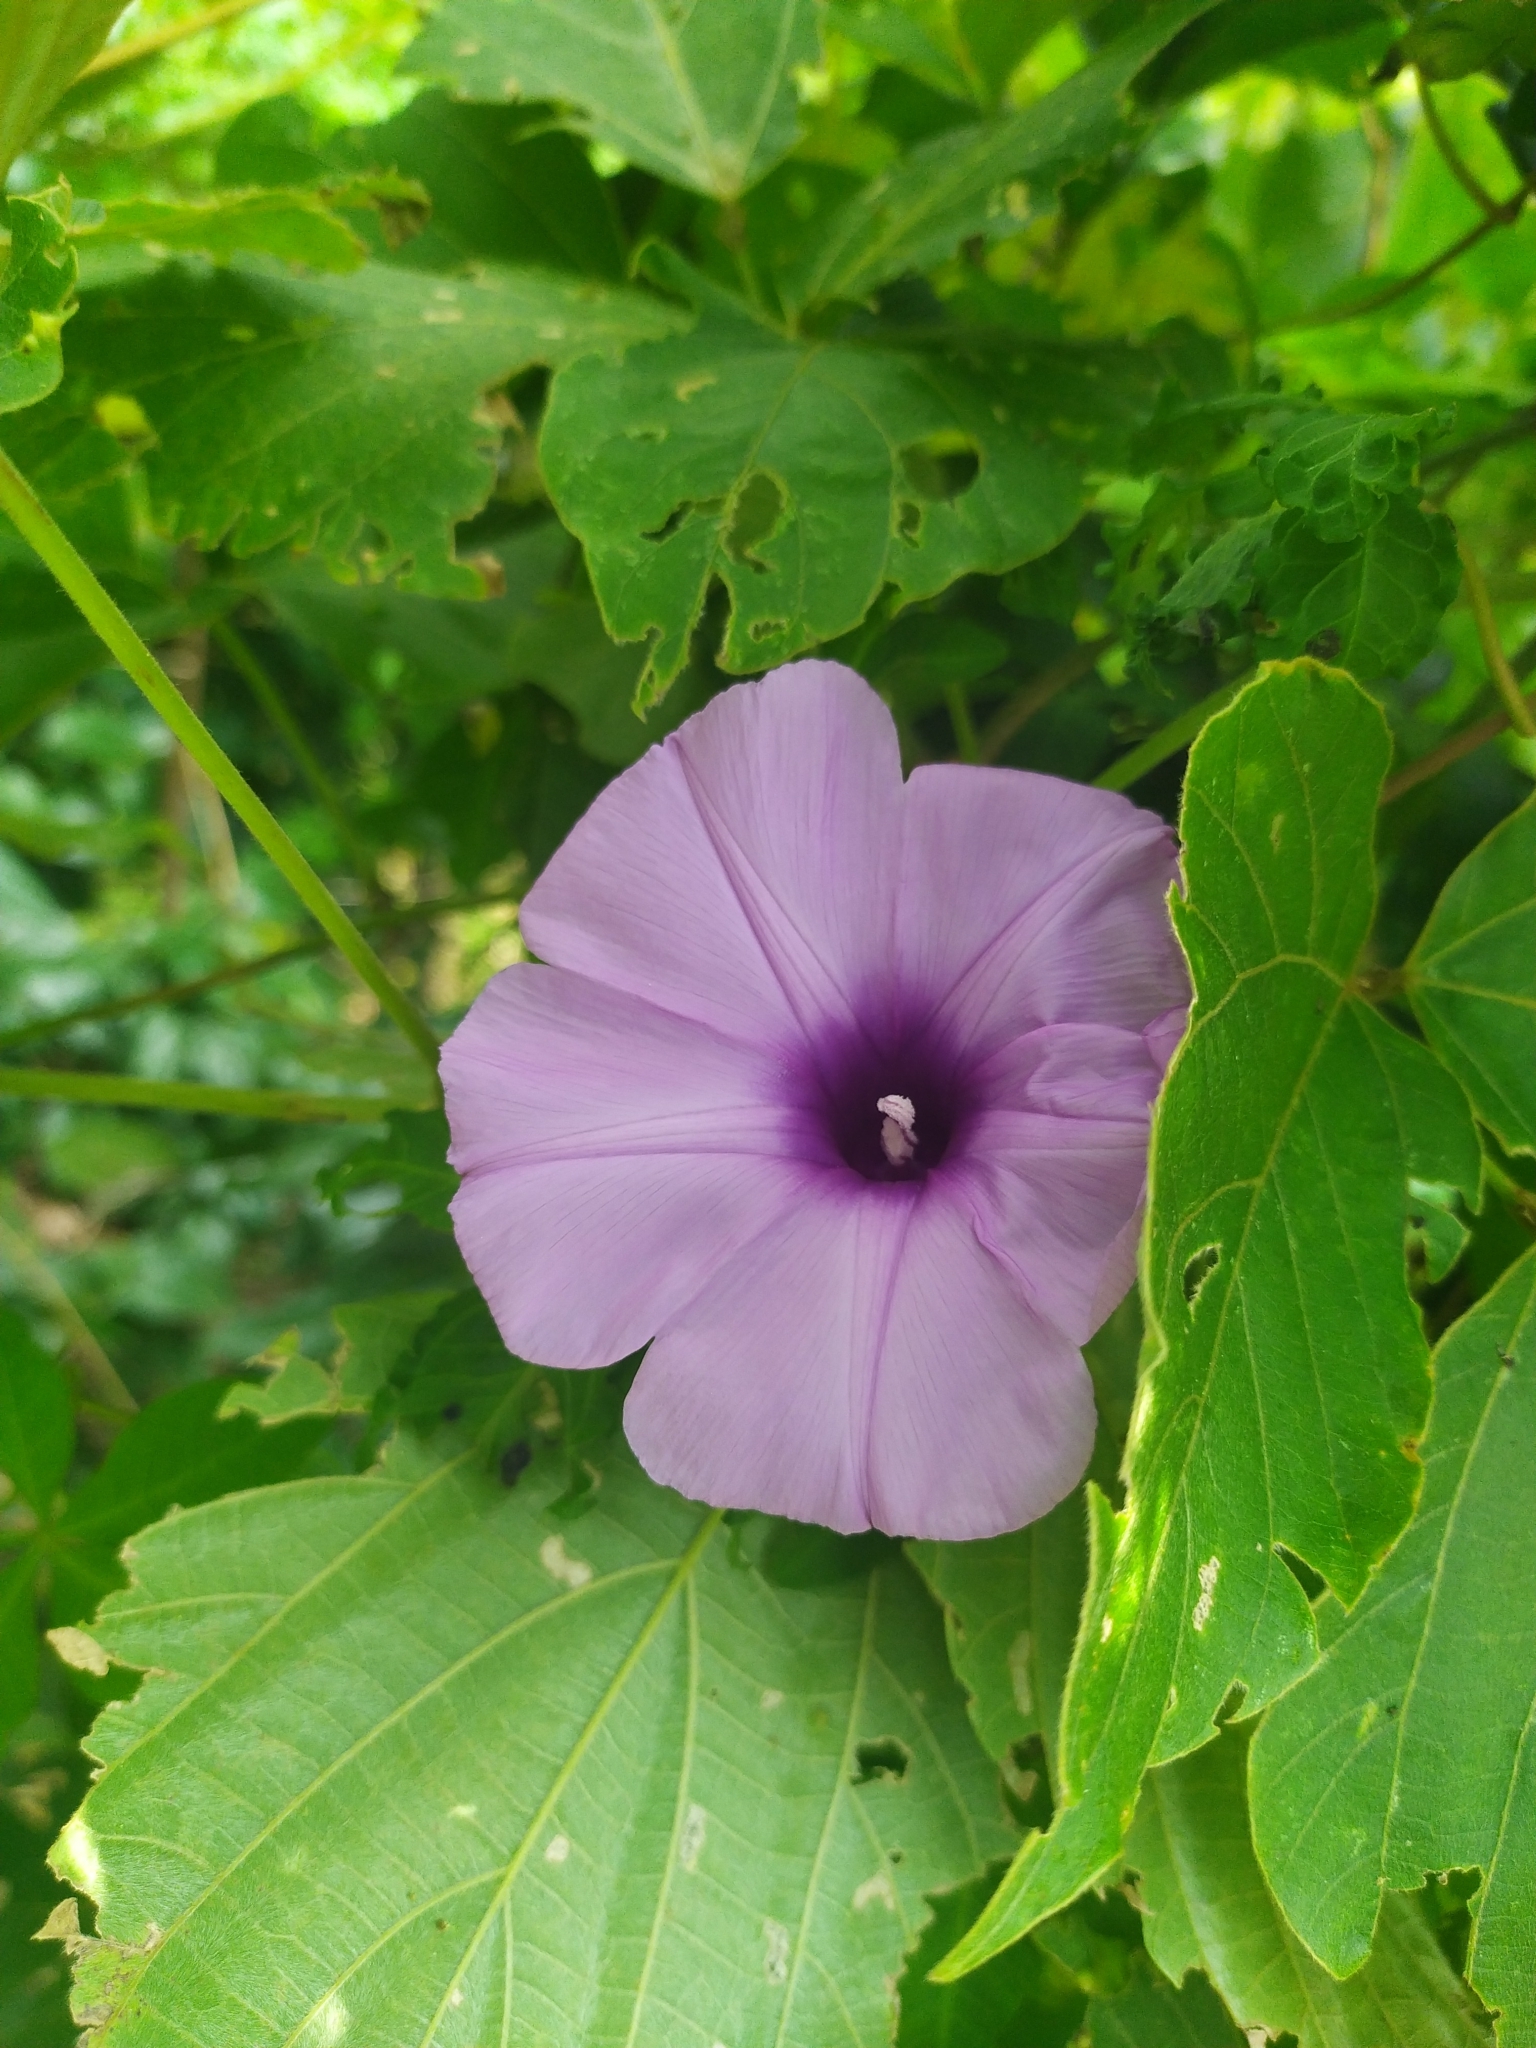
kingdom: Plantae
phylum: Tracheophyta
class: Magnoliopsida
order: Solanales
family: Convolvulaceae
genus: Ipomoea
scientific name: Ipomoea cairica
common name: Mile a minute vine
